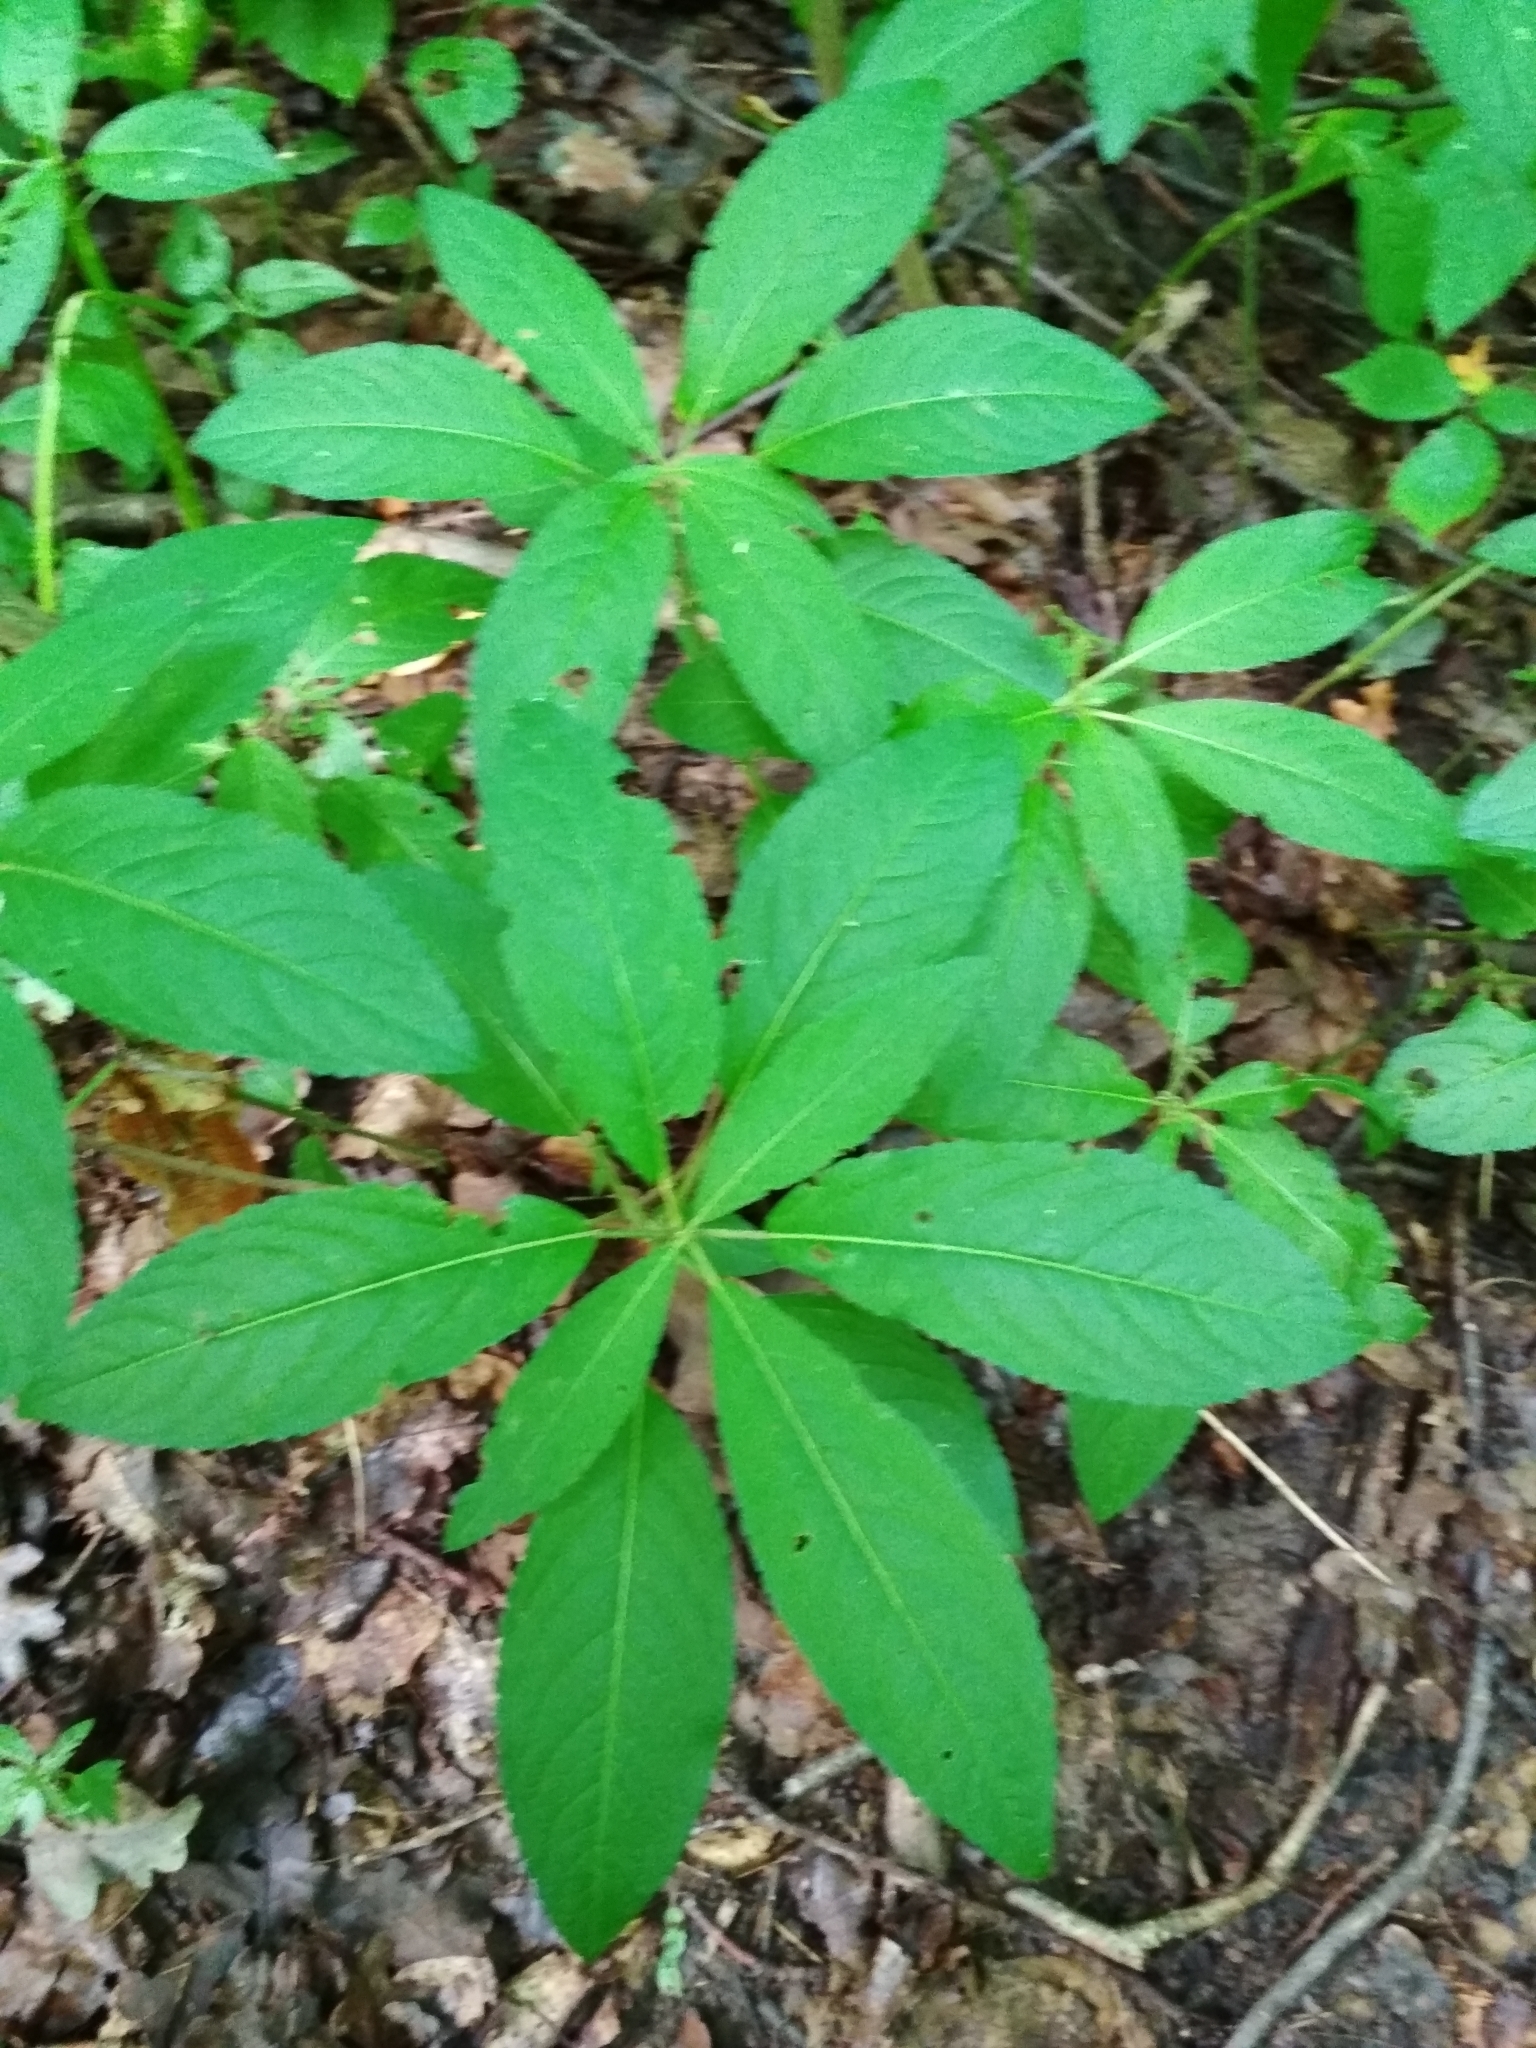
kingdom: Plantae
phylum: Tracheophyta
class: Magnoliopsida
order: Malpighiales
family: Euphorbiaceae
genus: Mercurialis
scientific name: Mercurialis perennis
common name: Dog mercury
